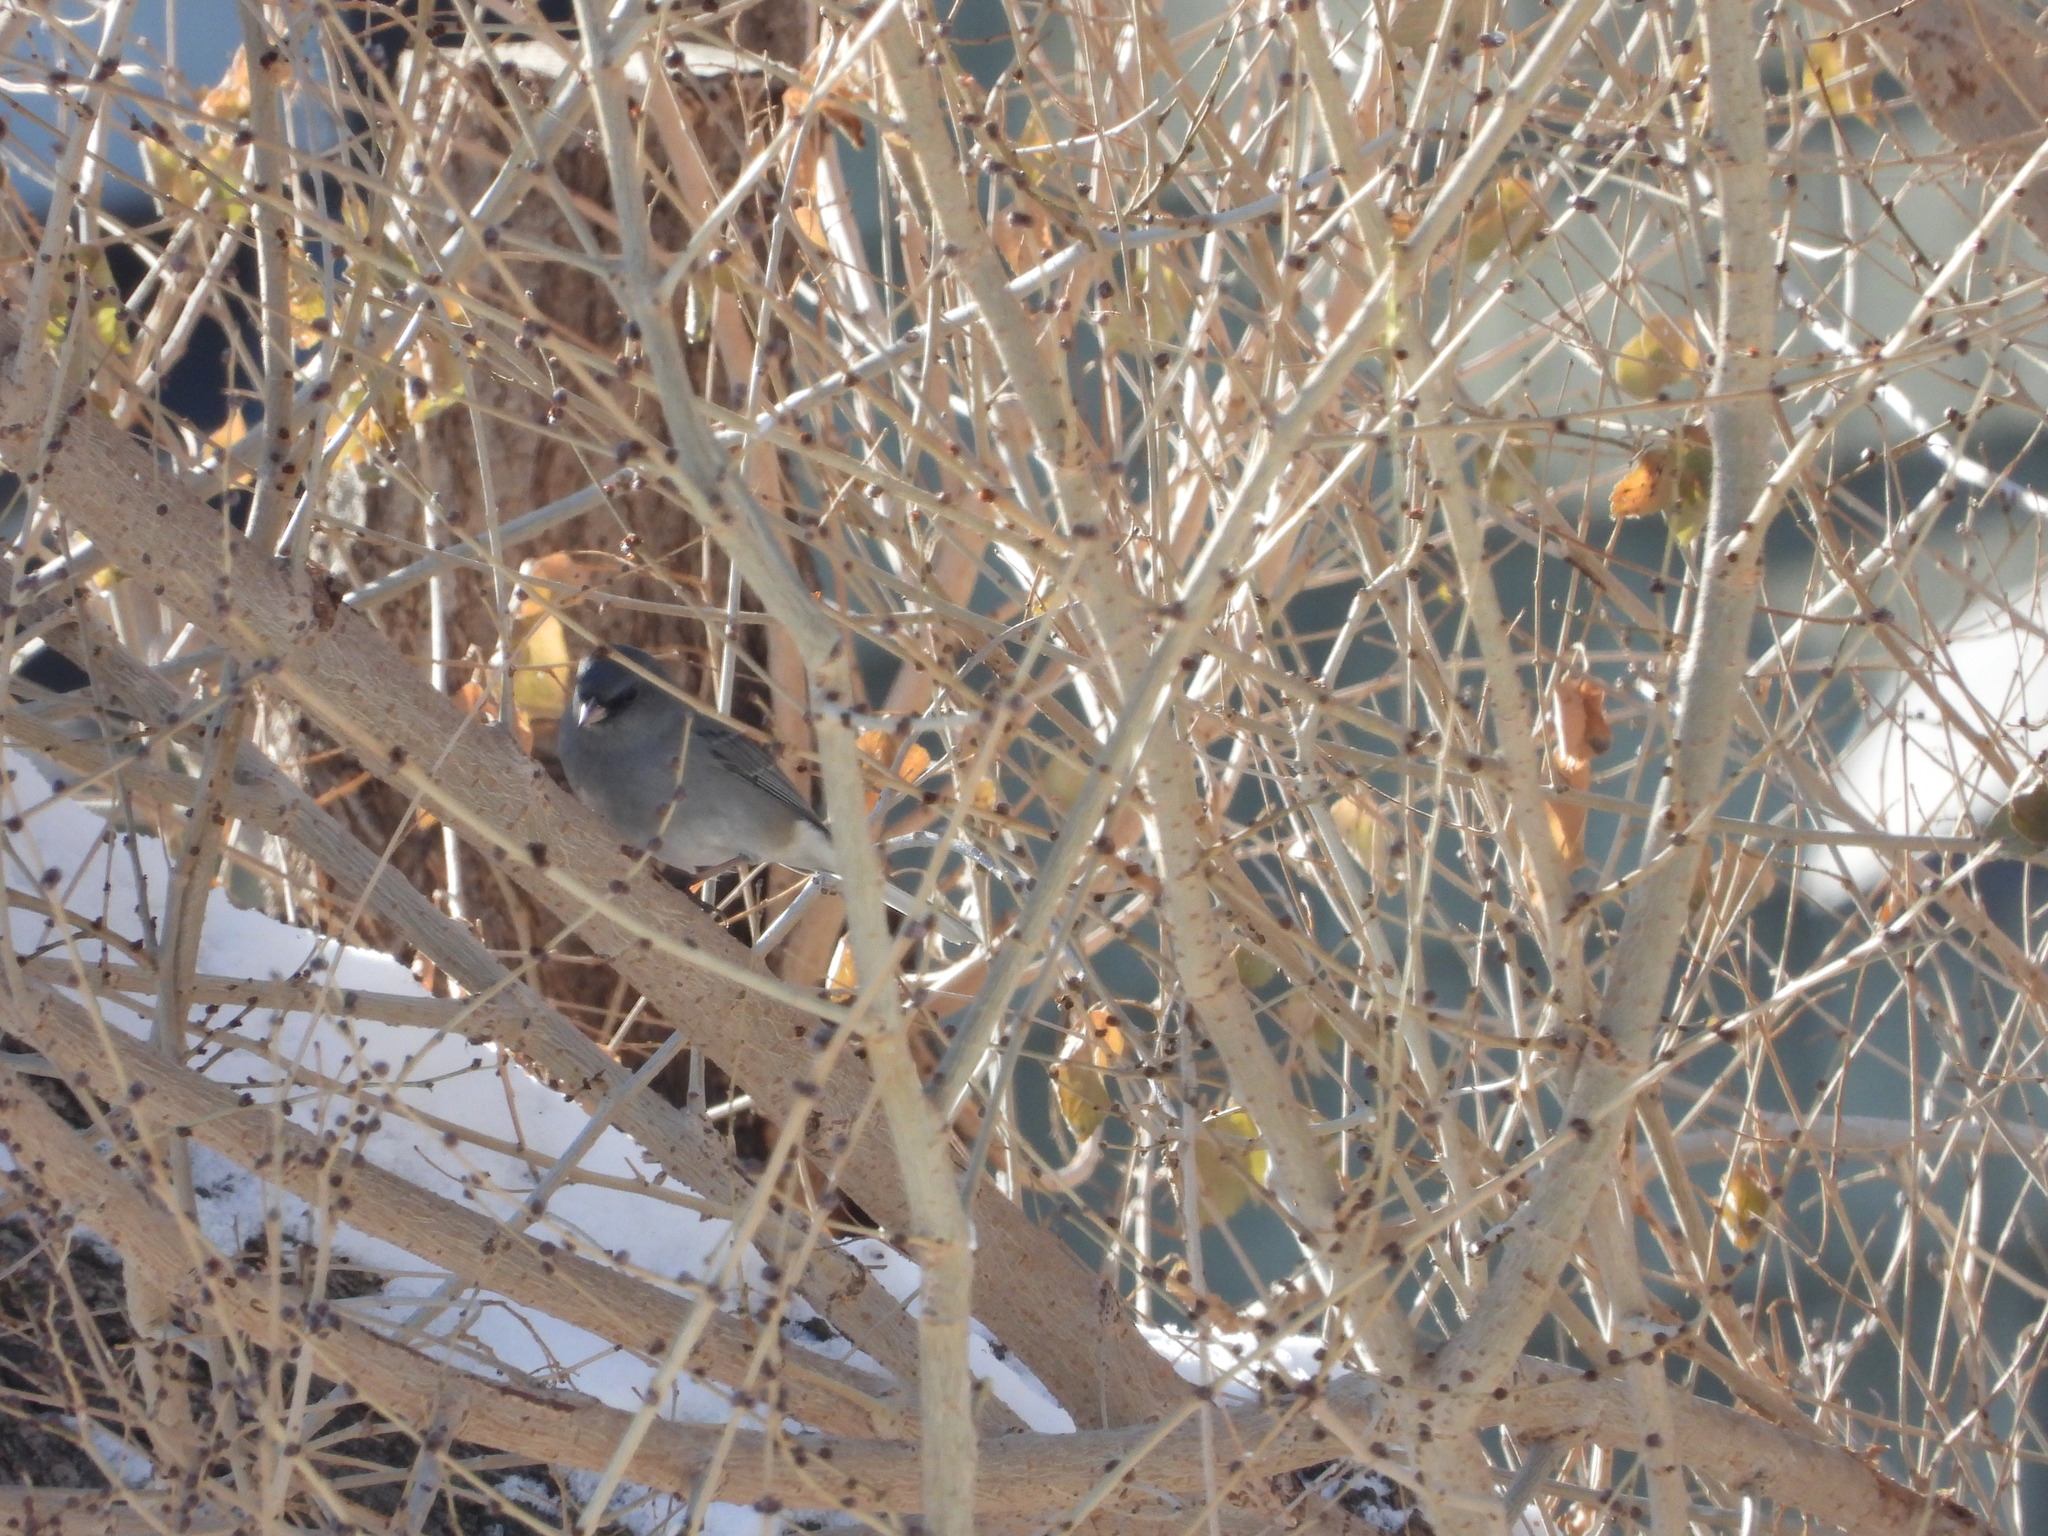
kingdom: Animalia
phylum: Chordata
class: Aves
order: Passeriformes
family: Passerellidae
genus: Junco
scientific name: Junco hyemalis
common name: Dark-eyed junco
